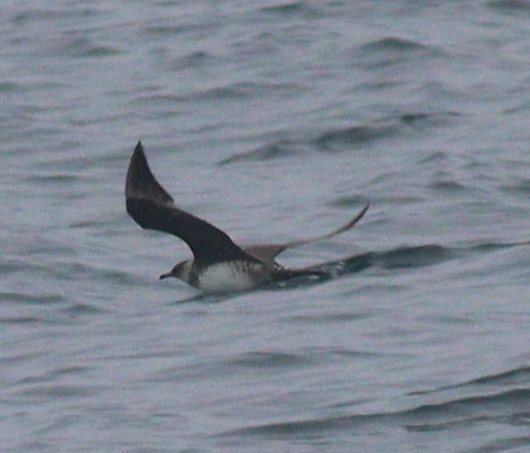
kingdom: Animalia
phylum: Chordata
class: Aves
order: Charadriiformes
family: Stercorariidae
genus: Stercorarius
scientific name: Stercorarius parasiticus
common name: Parasitic jaeger
